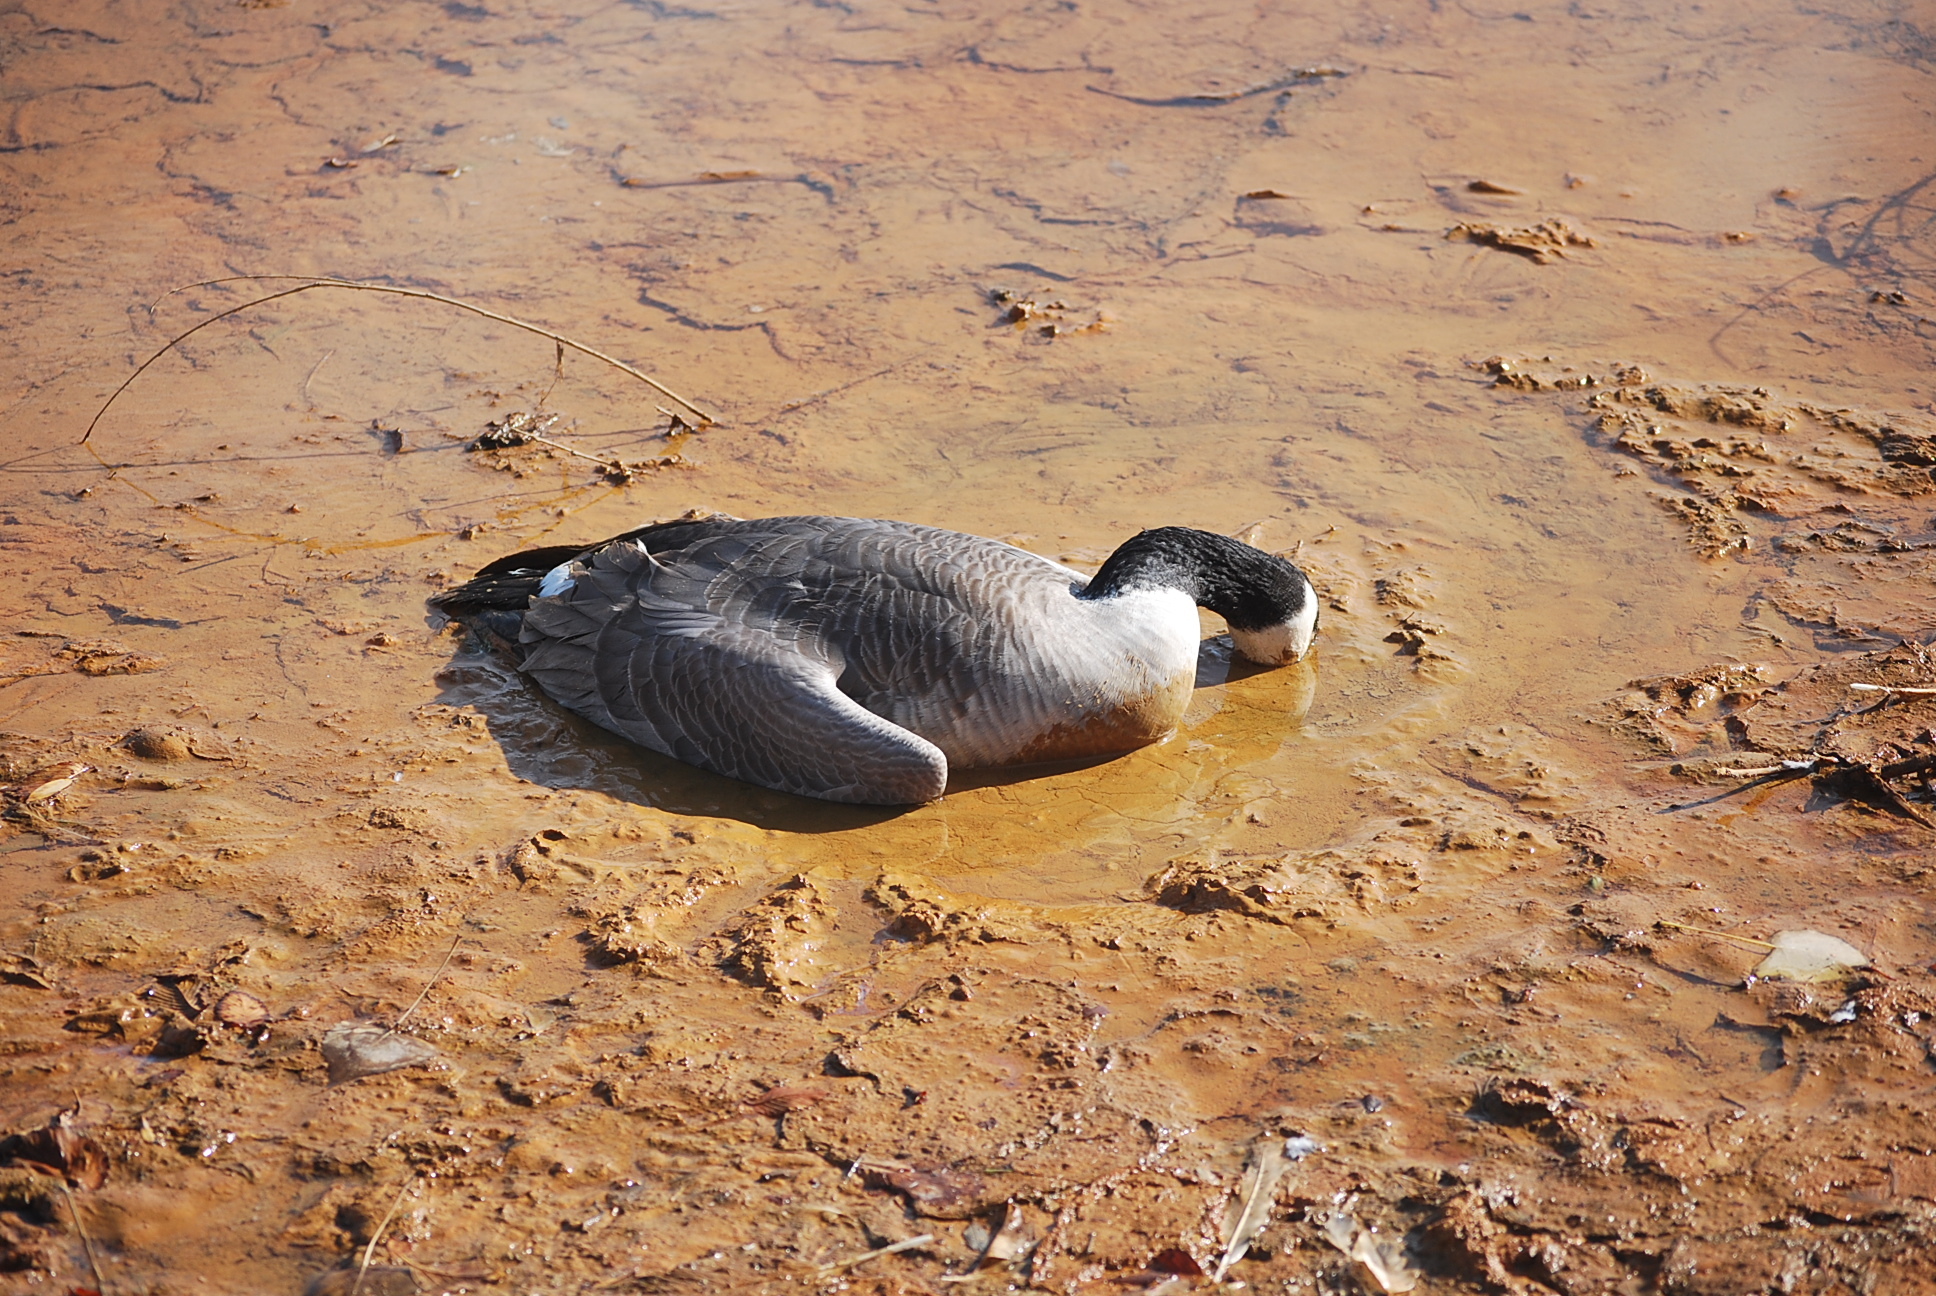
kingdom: Animalia
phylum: Chordata
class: Aves
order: Anseriformes
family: Anatidae
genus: Branta
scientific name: Branta canadensis
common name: Canada goose
